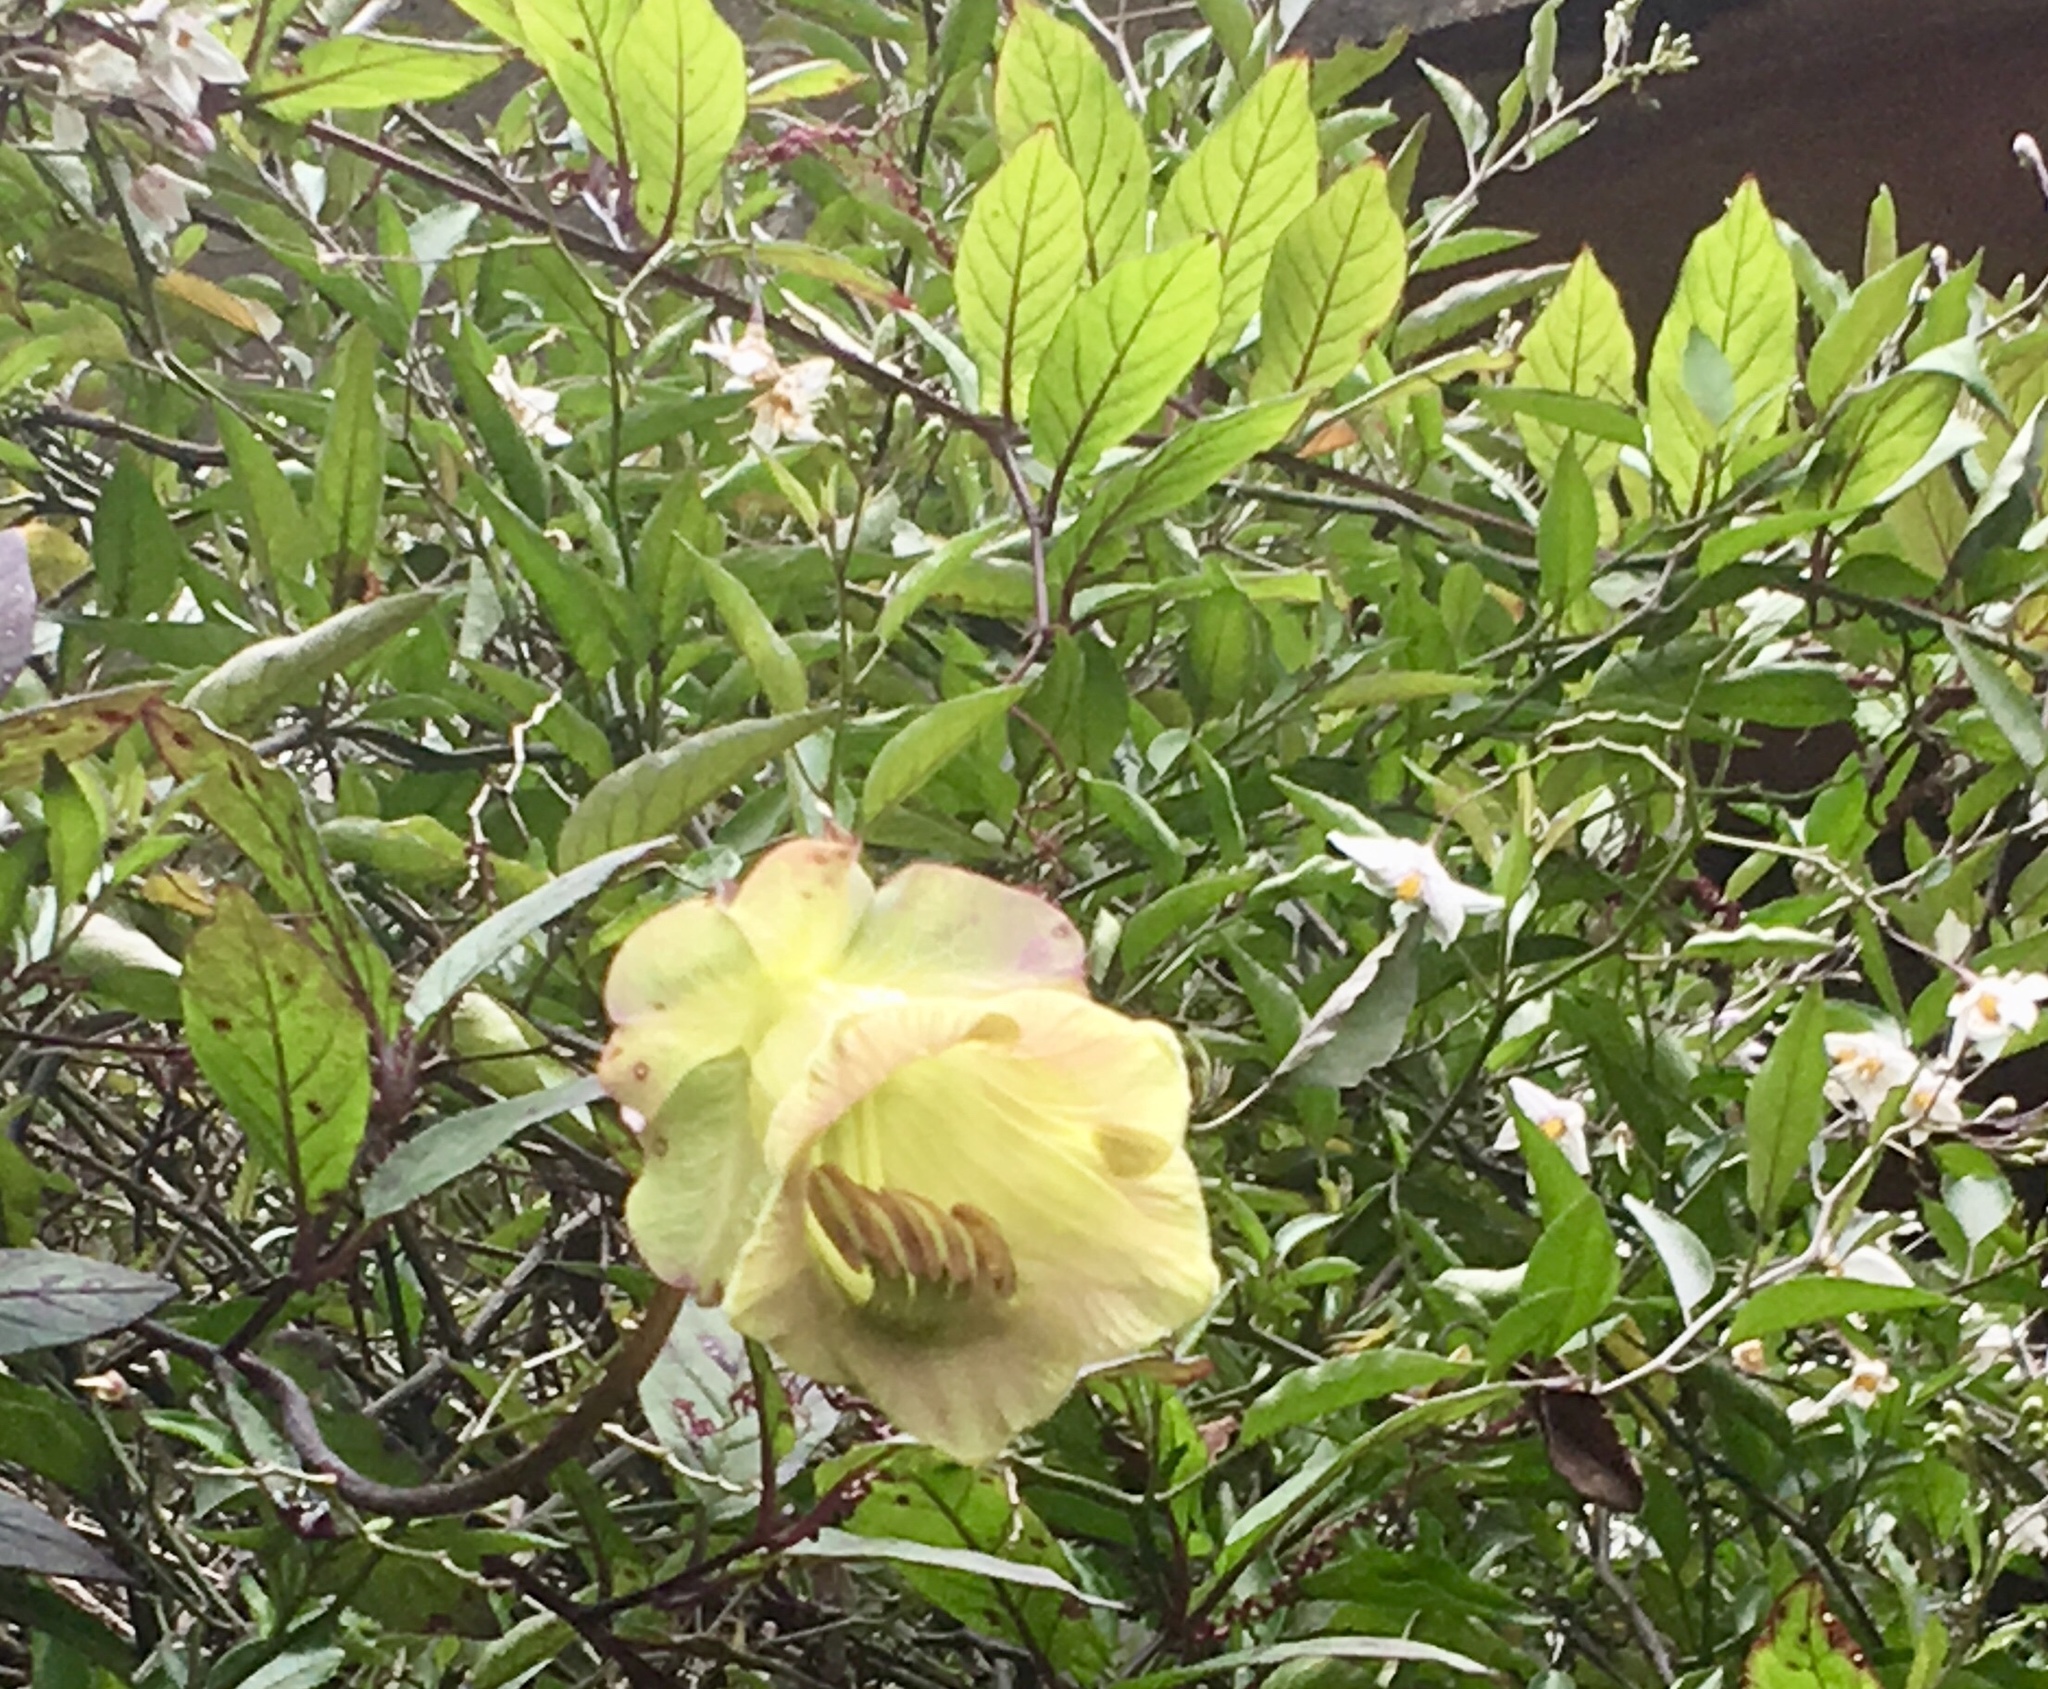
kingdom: Plantae
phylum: Tracheophyta
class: Magnoliopsida
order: Ericales
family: Polemoniaceae
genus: Cobaea
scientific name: Cobaea scandens
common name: Cup-and-saucer-vine
